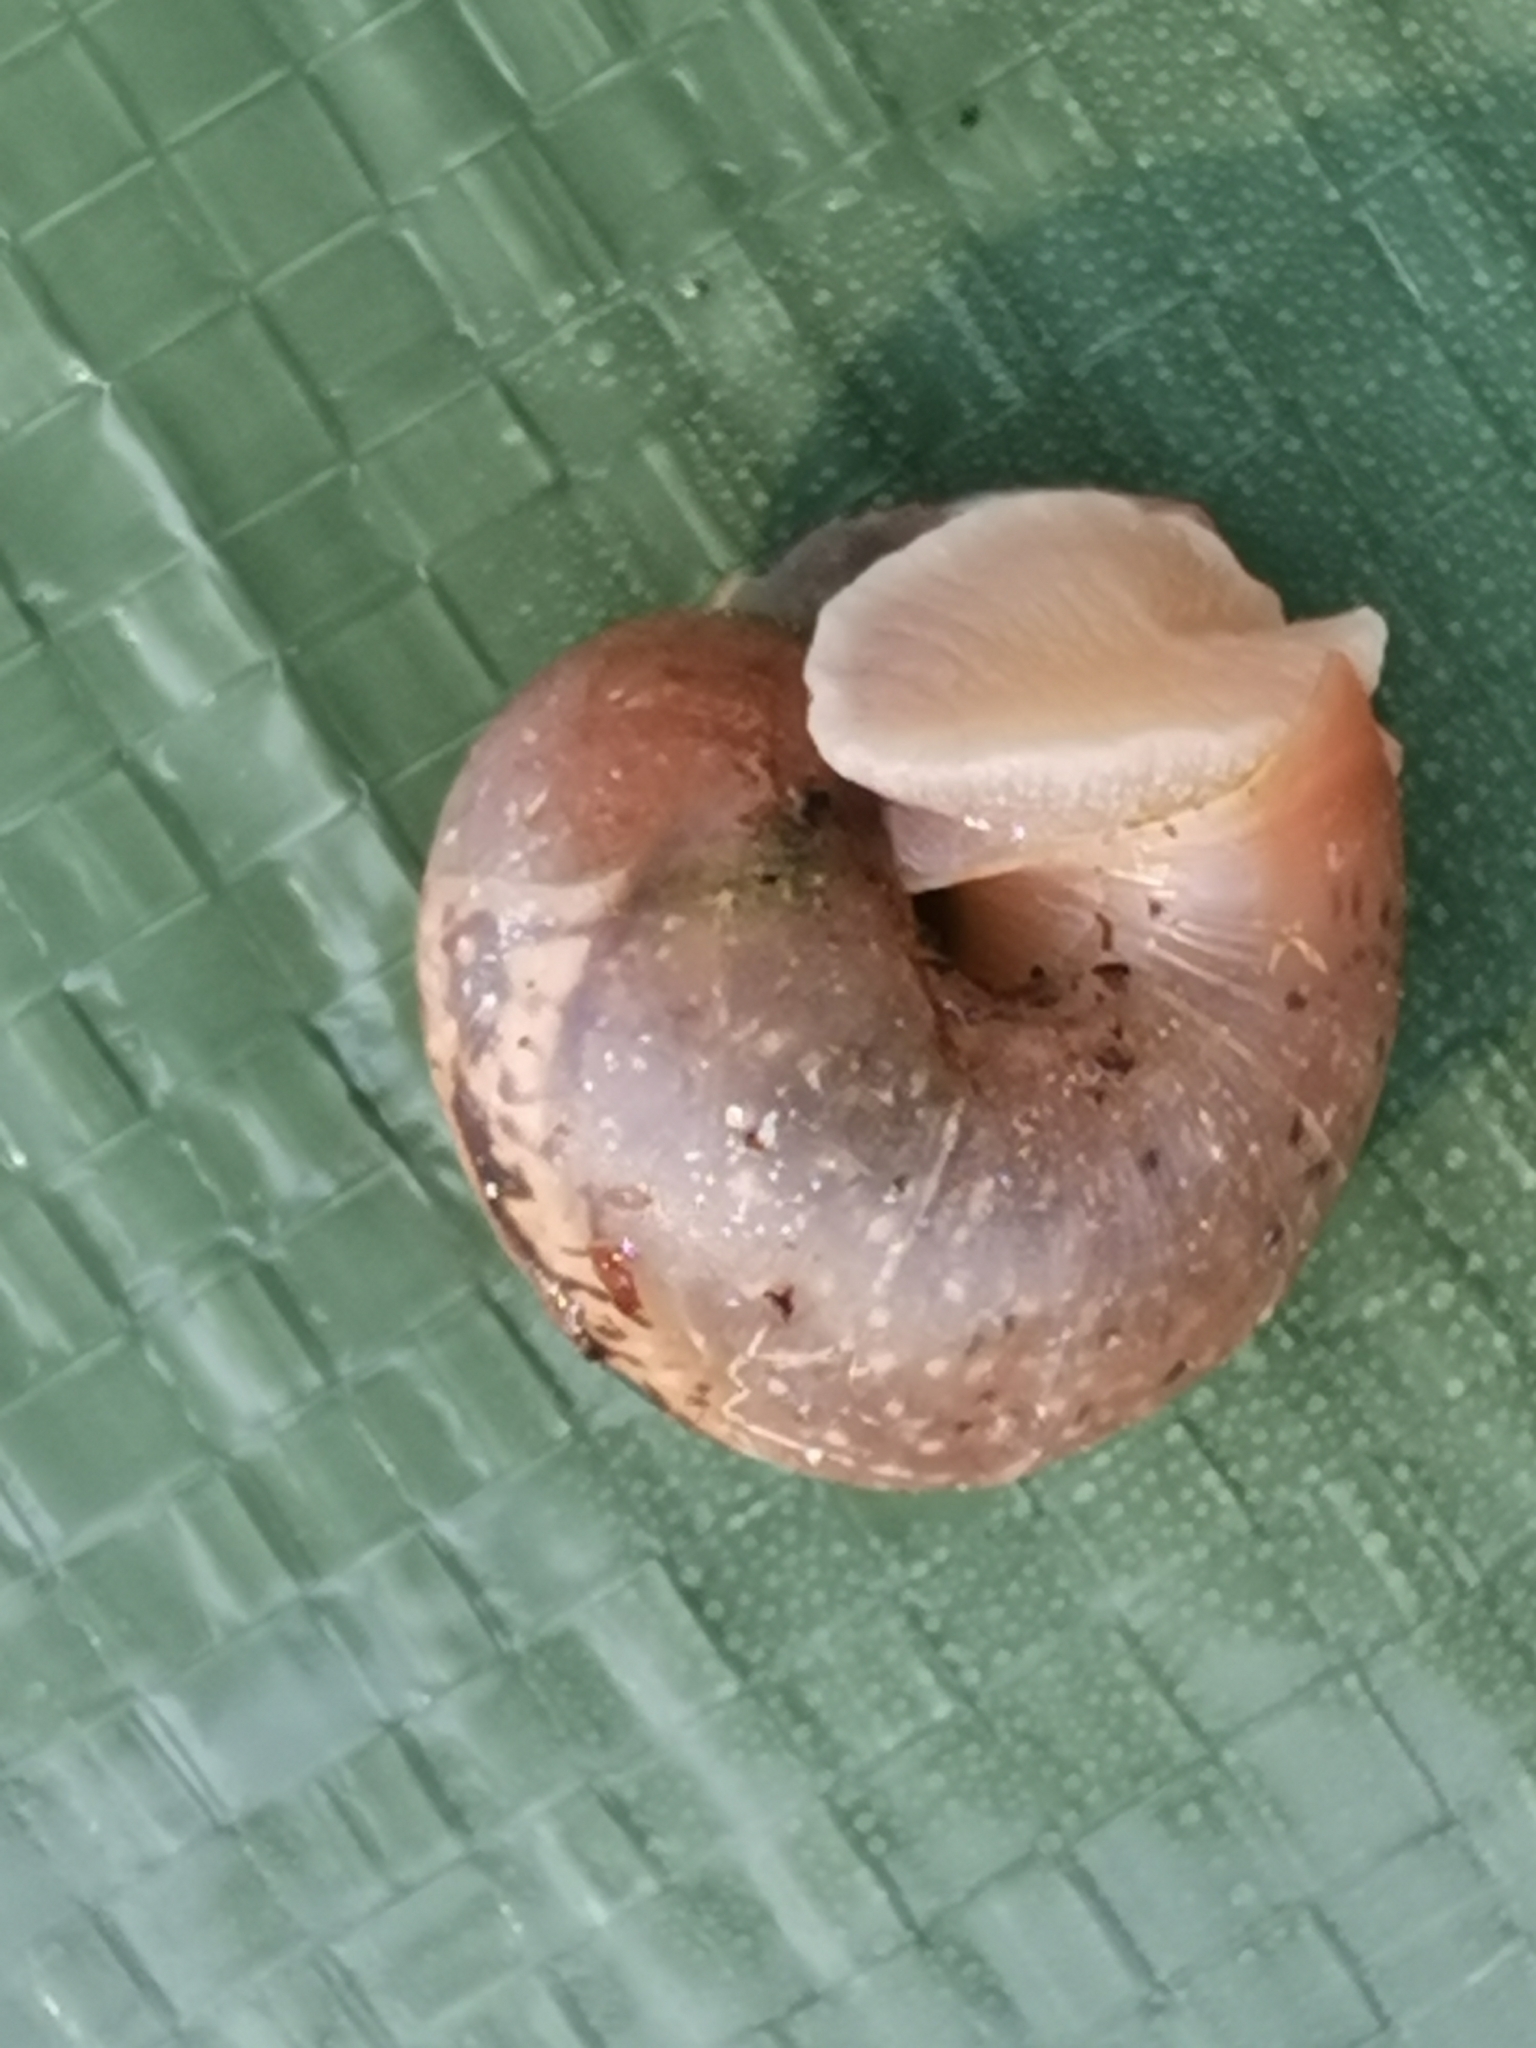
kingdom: Animalia
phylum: Mollusca
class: Gastropoda
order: Stylommatophora
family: Camaenidae
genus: Fruticicola
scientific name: Fruticicola fruticum
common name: Bush snail
